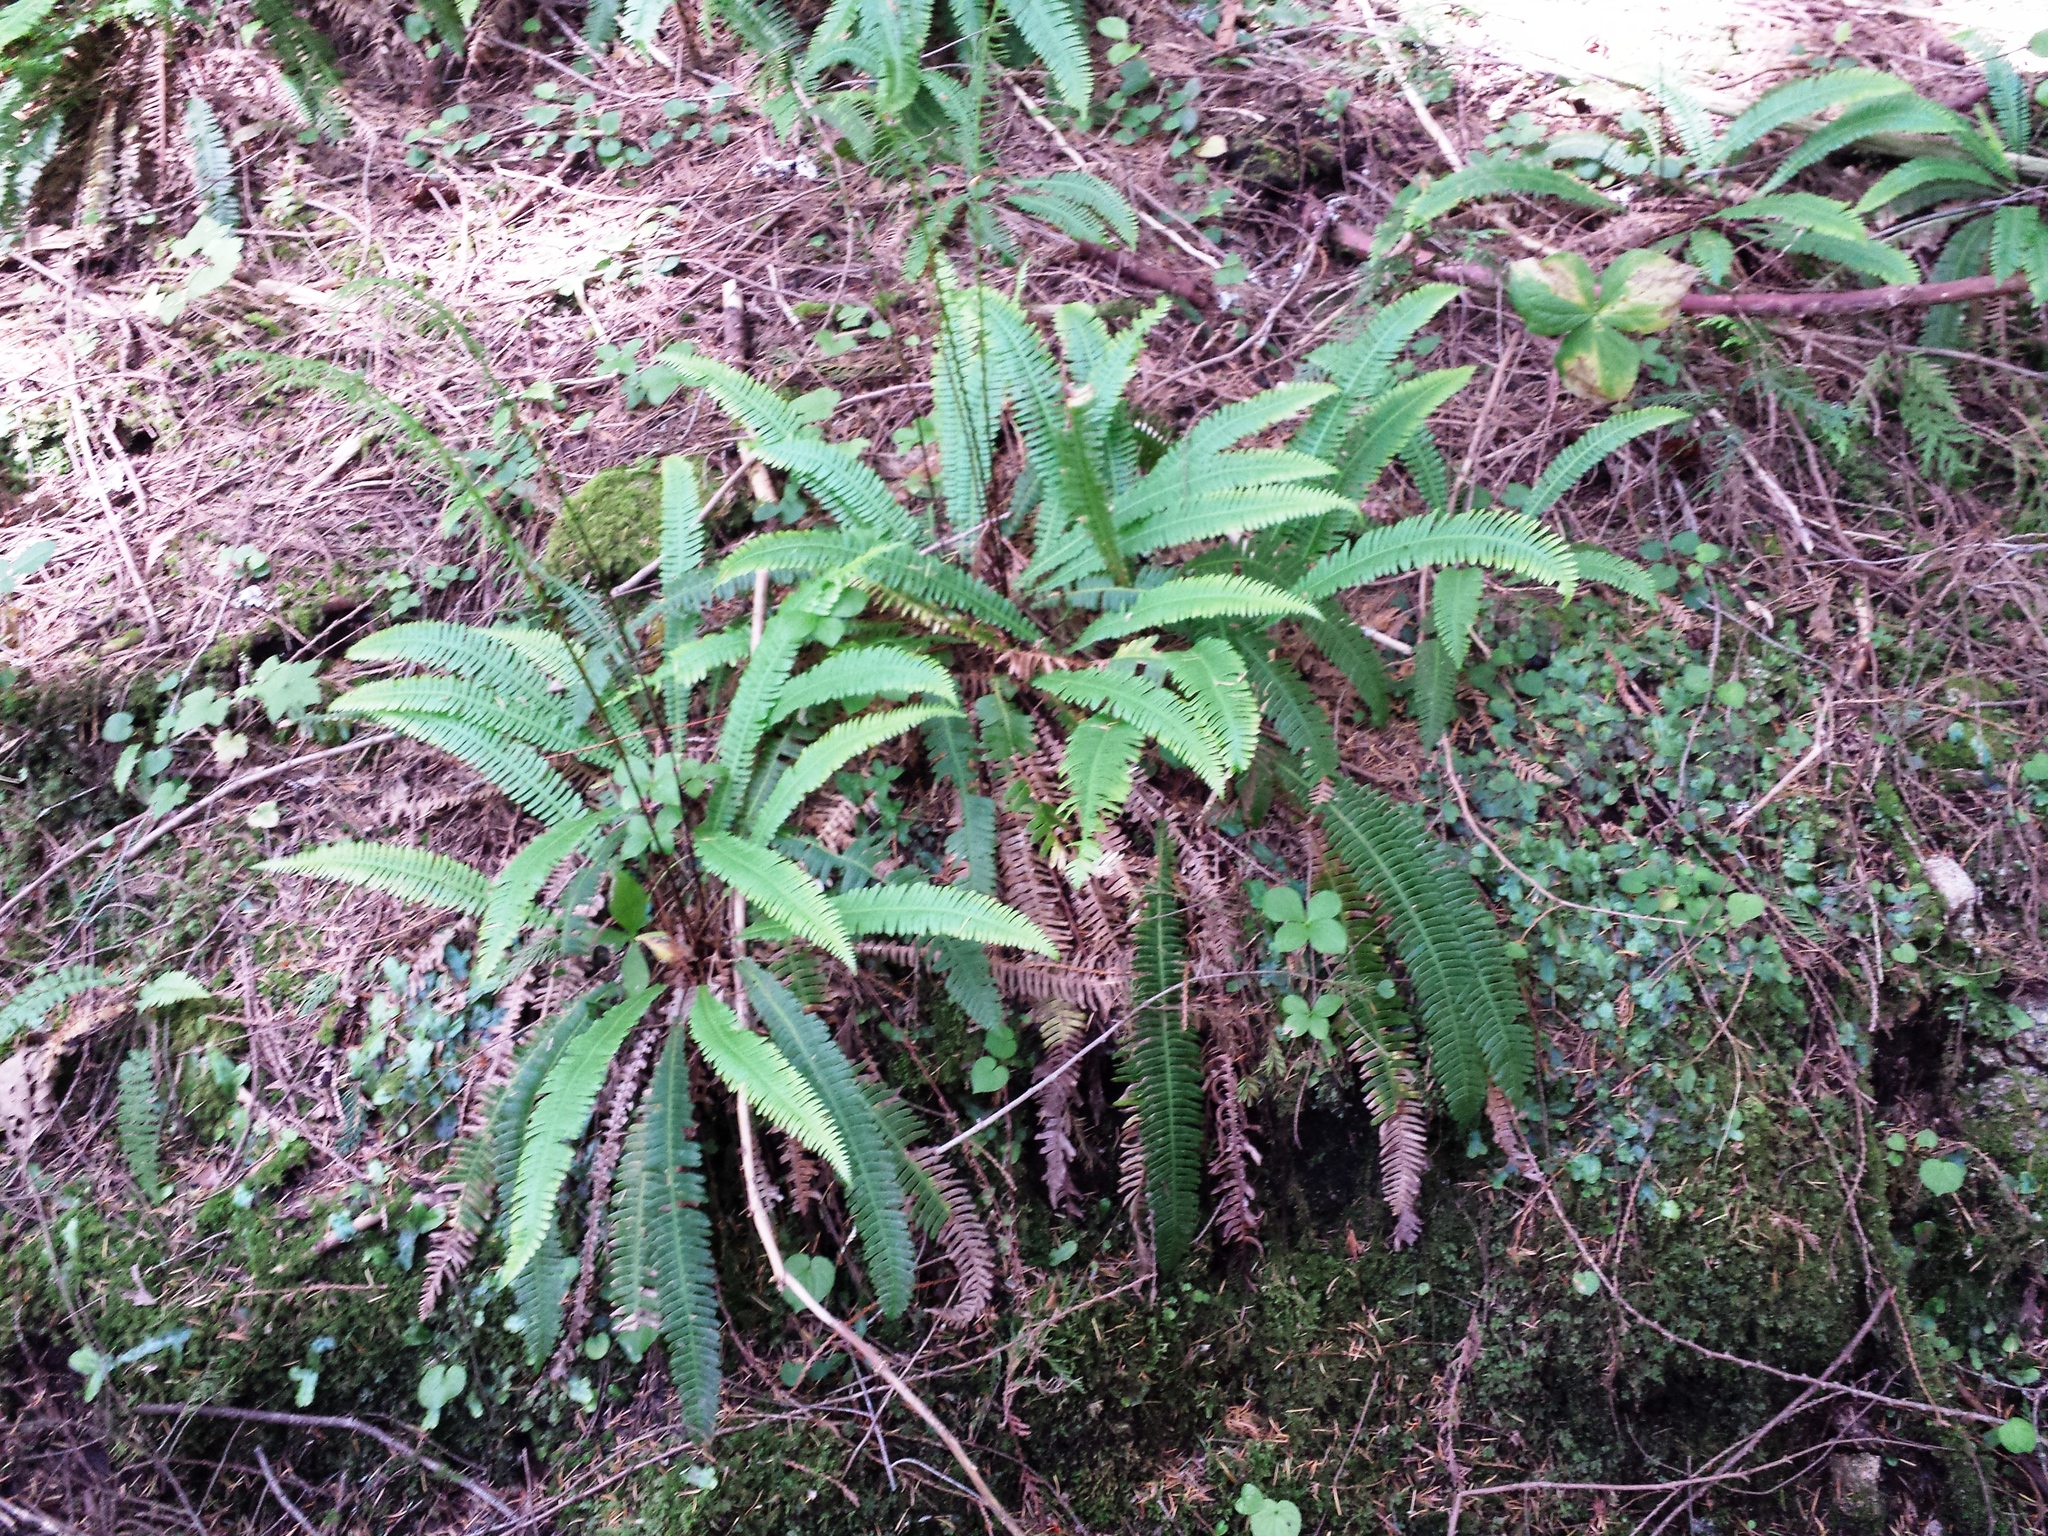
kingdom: Plantae
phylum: Tracheophyta
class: Polypodiopsida
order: Polypodiales
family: Blechnaceae
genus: Struthiopteris
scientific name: Struthiopteris spicant
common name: Deer fern
